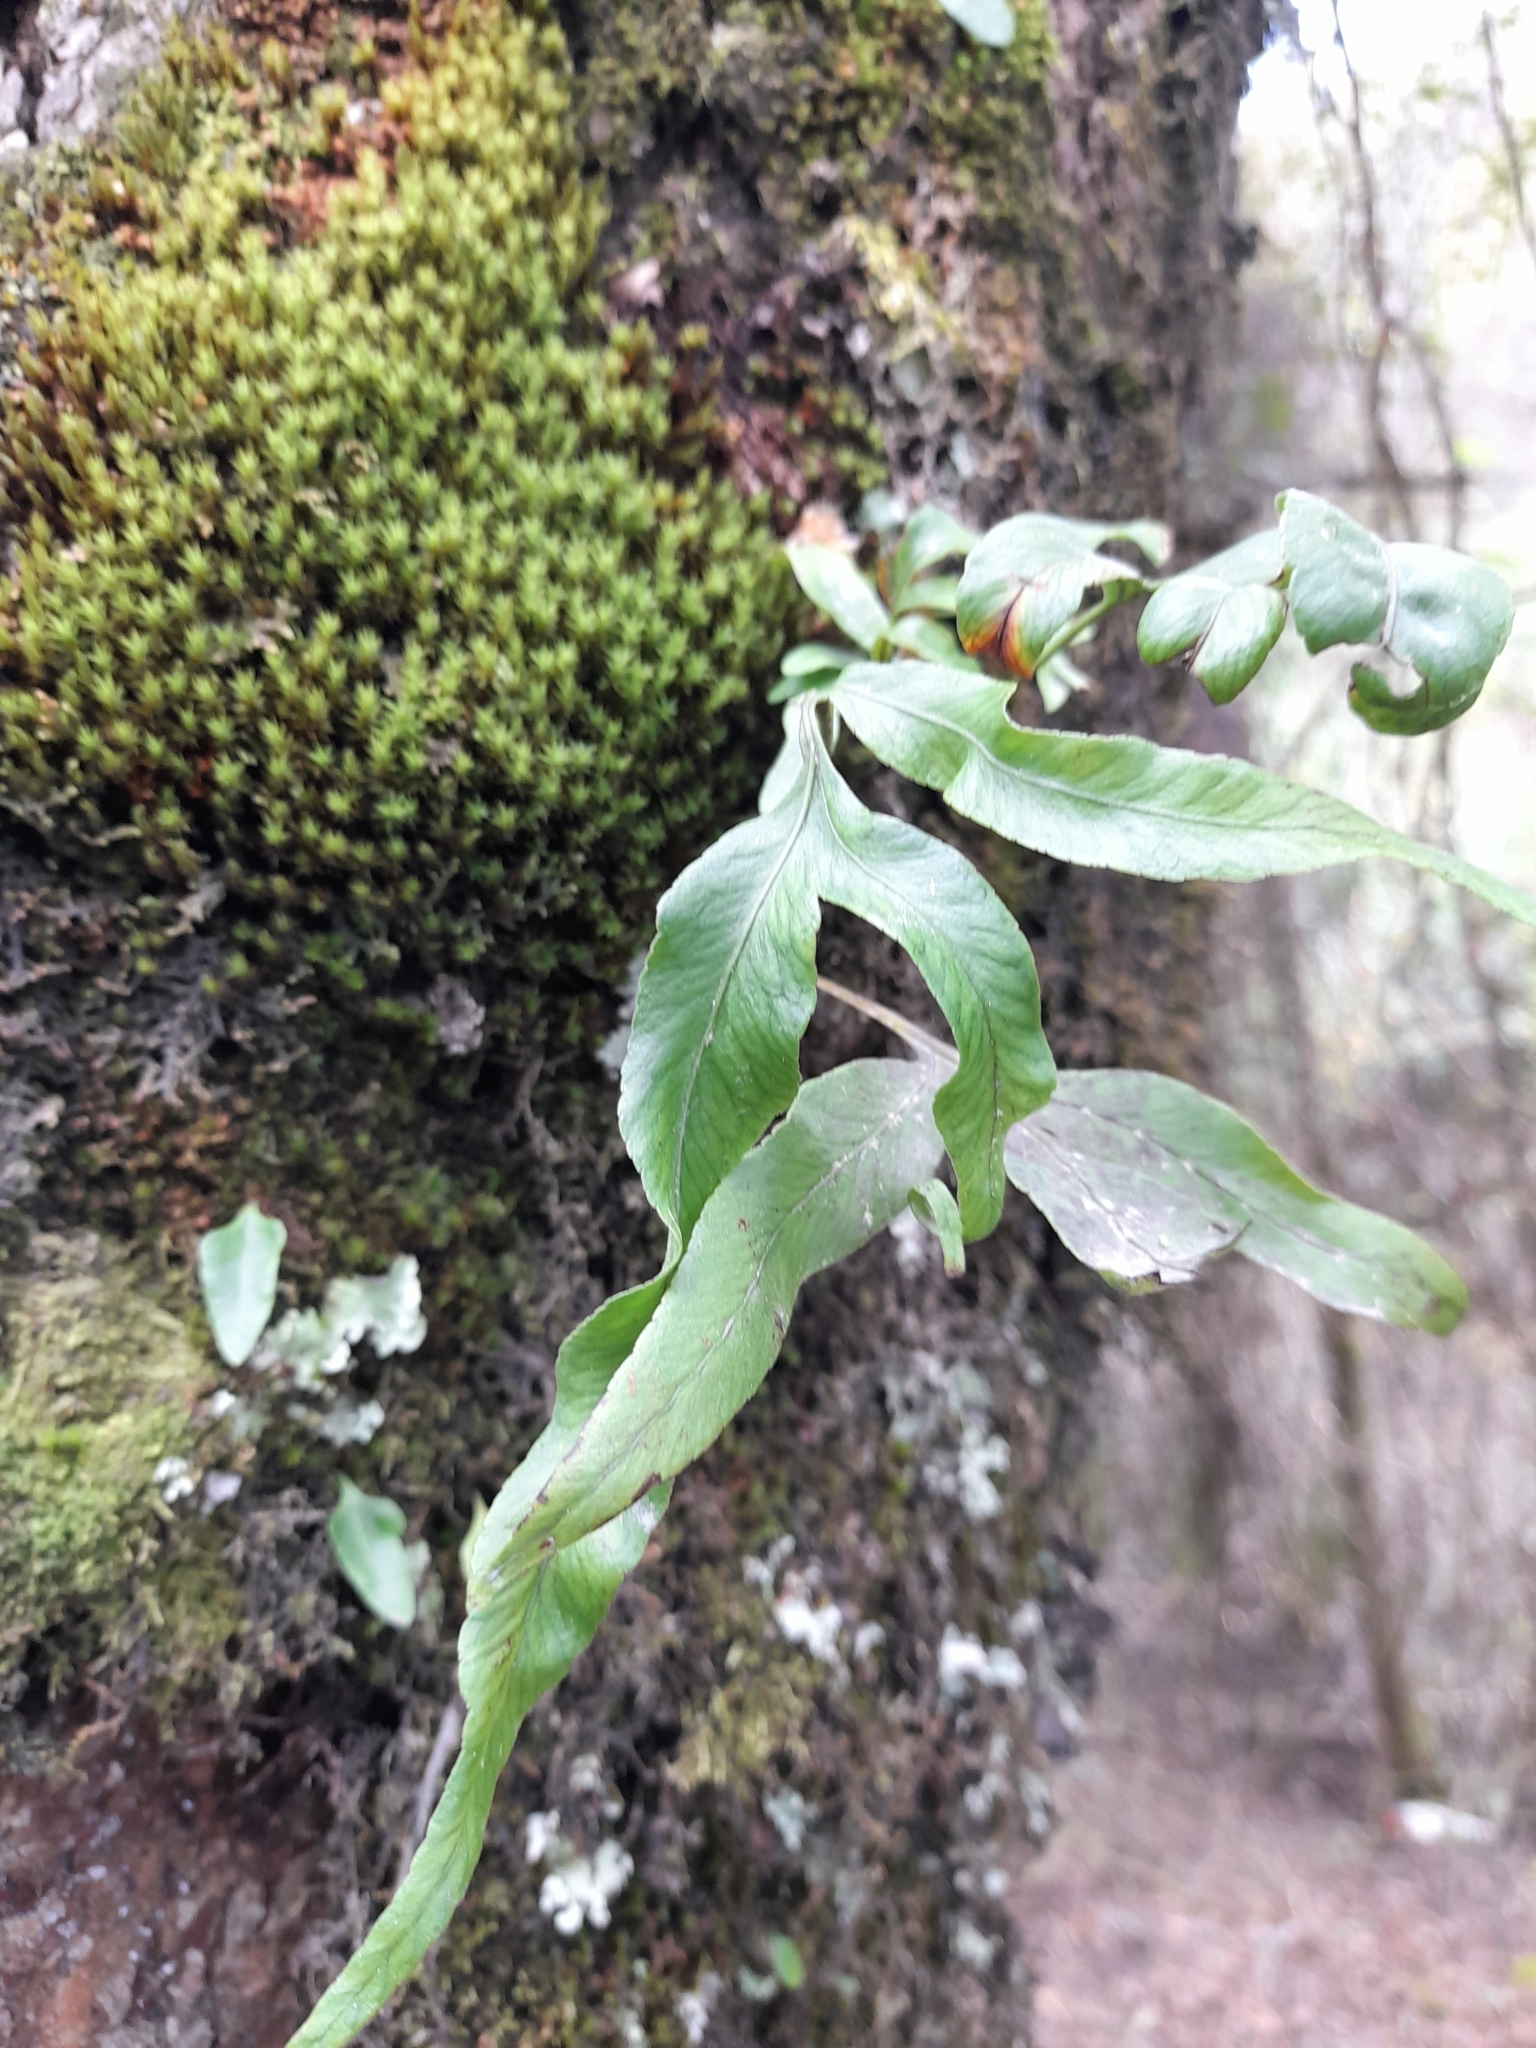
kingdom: Plantae
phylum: Tracheophyta
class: Polypodiopsida
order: Polypodiales
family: Polypodiaceae
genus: Synammia
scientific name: Synammia feuillei
